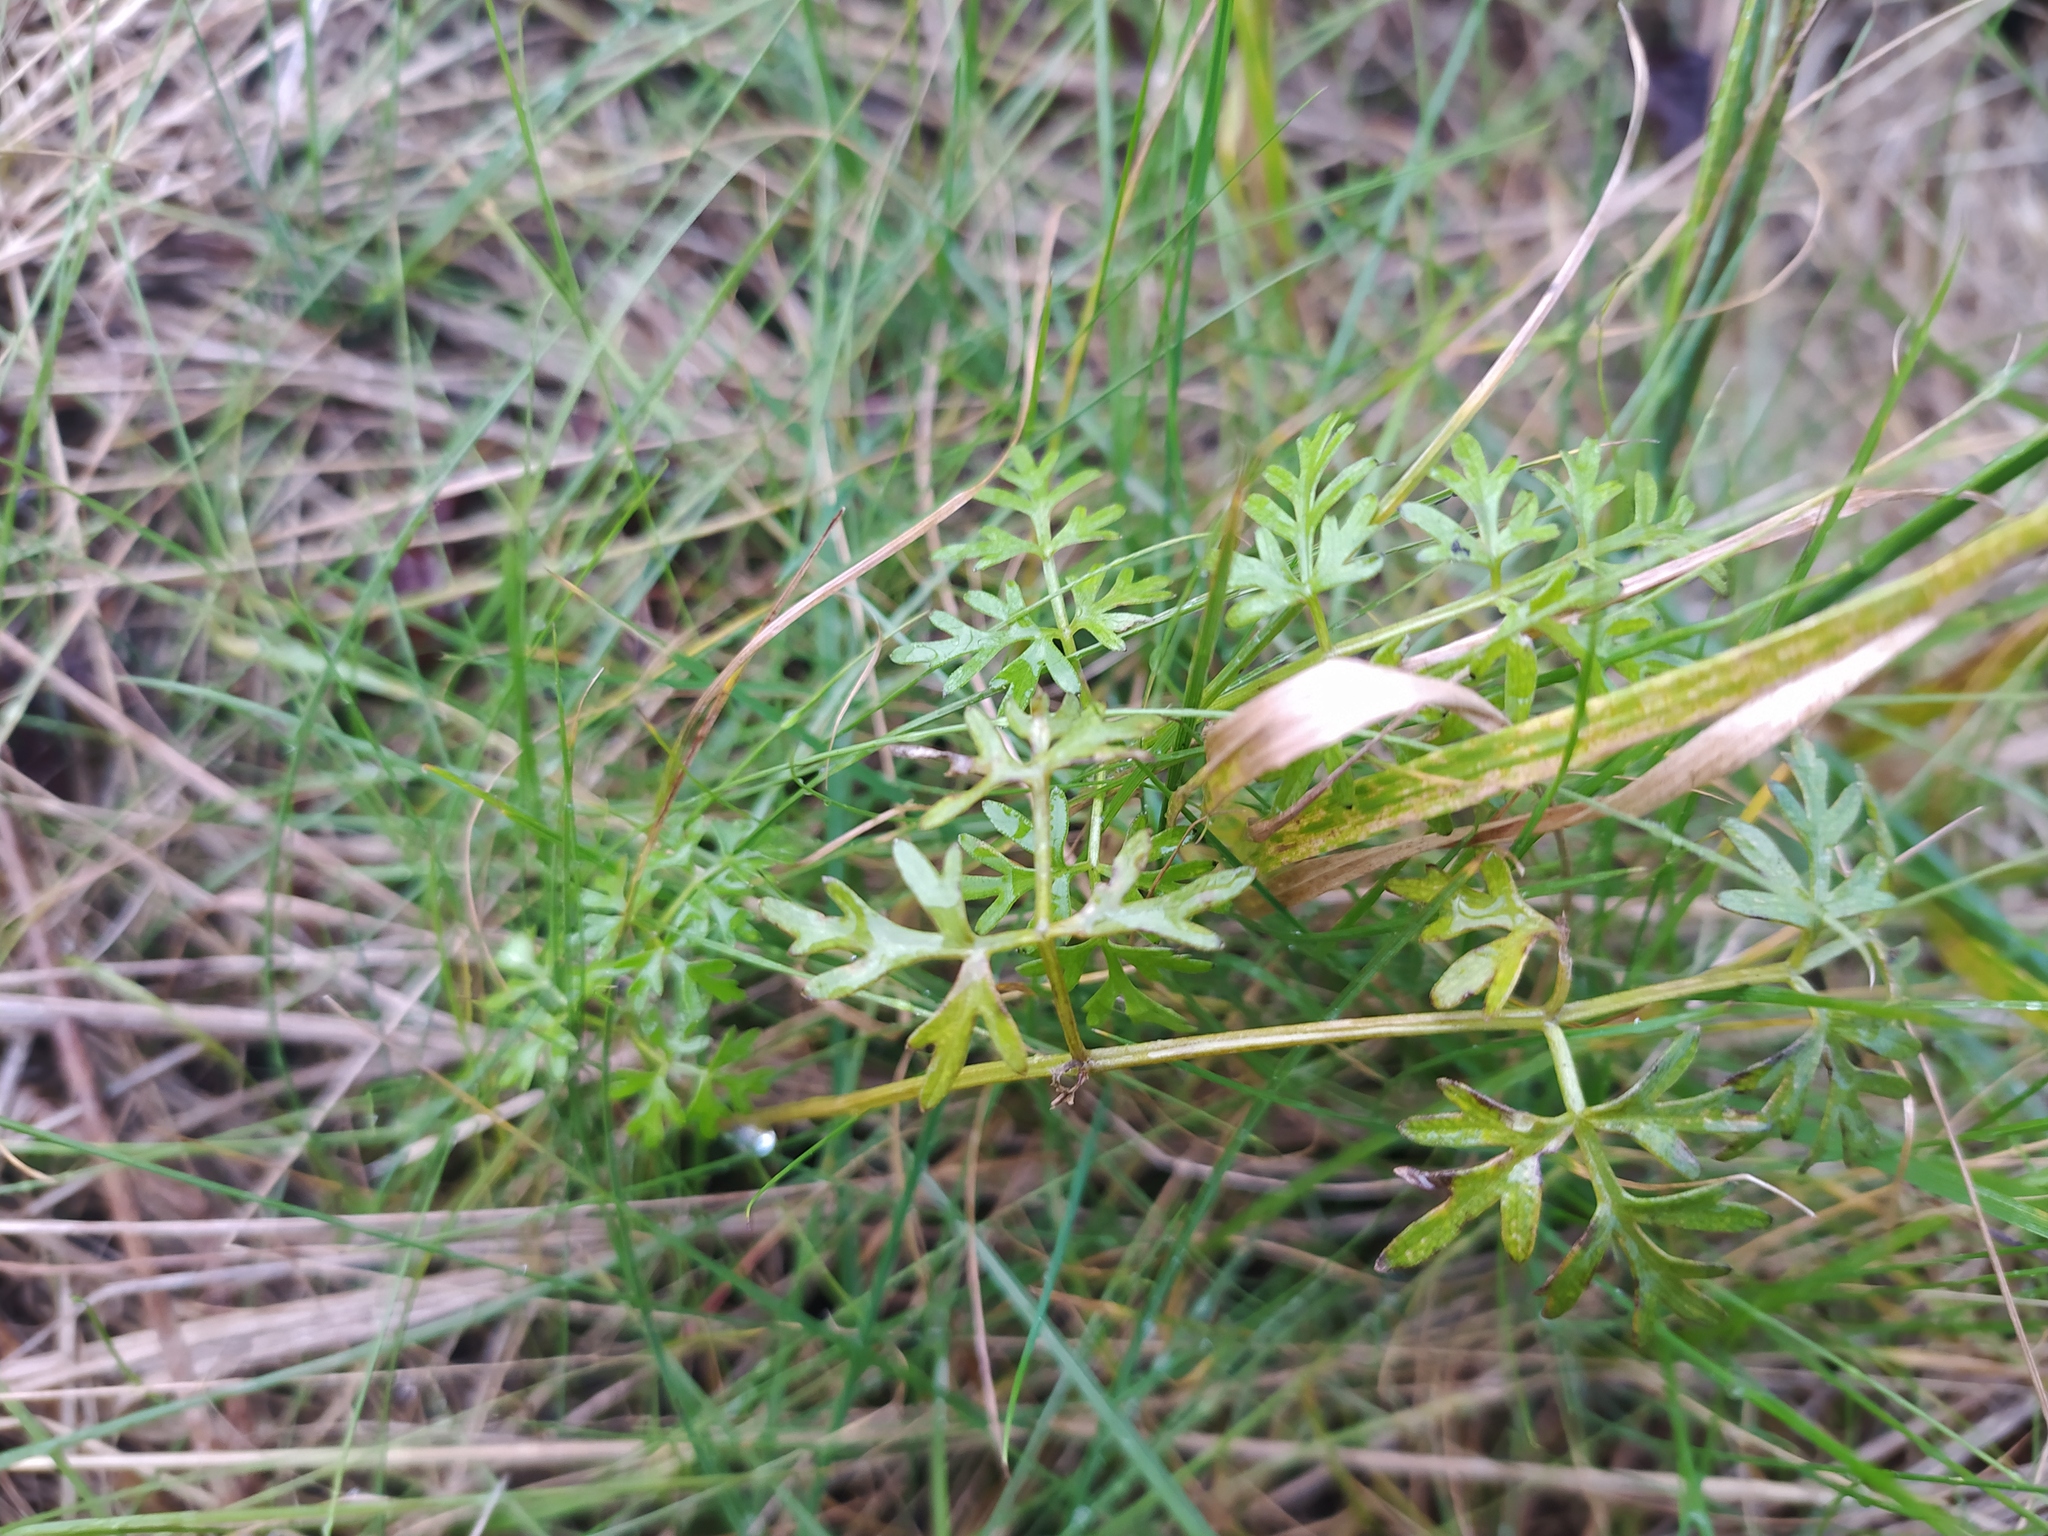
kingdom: Plantae
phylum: Tracheophyta
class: Magnoliopsida
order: Apiales
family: Apiaceae
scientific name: Apiaceae
